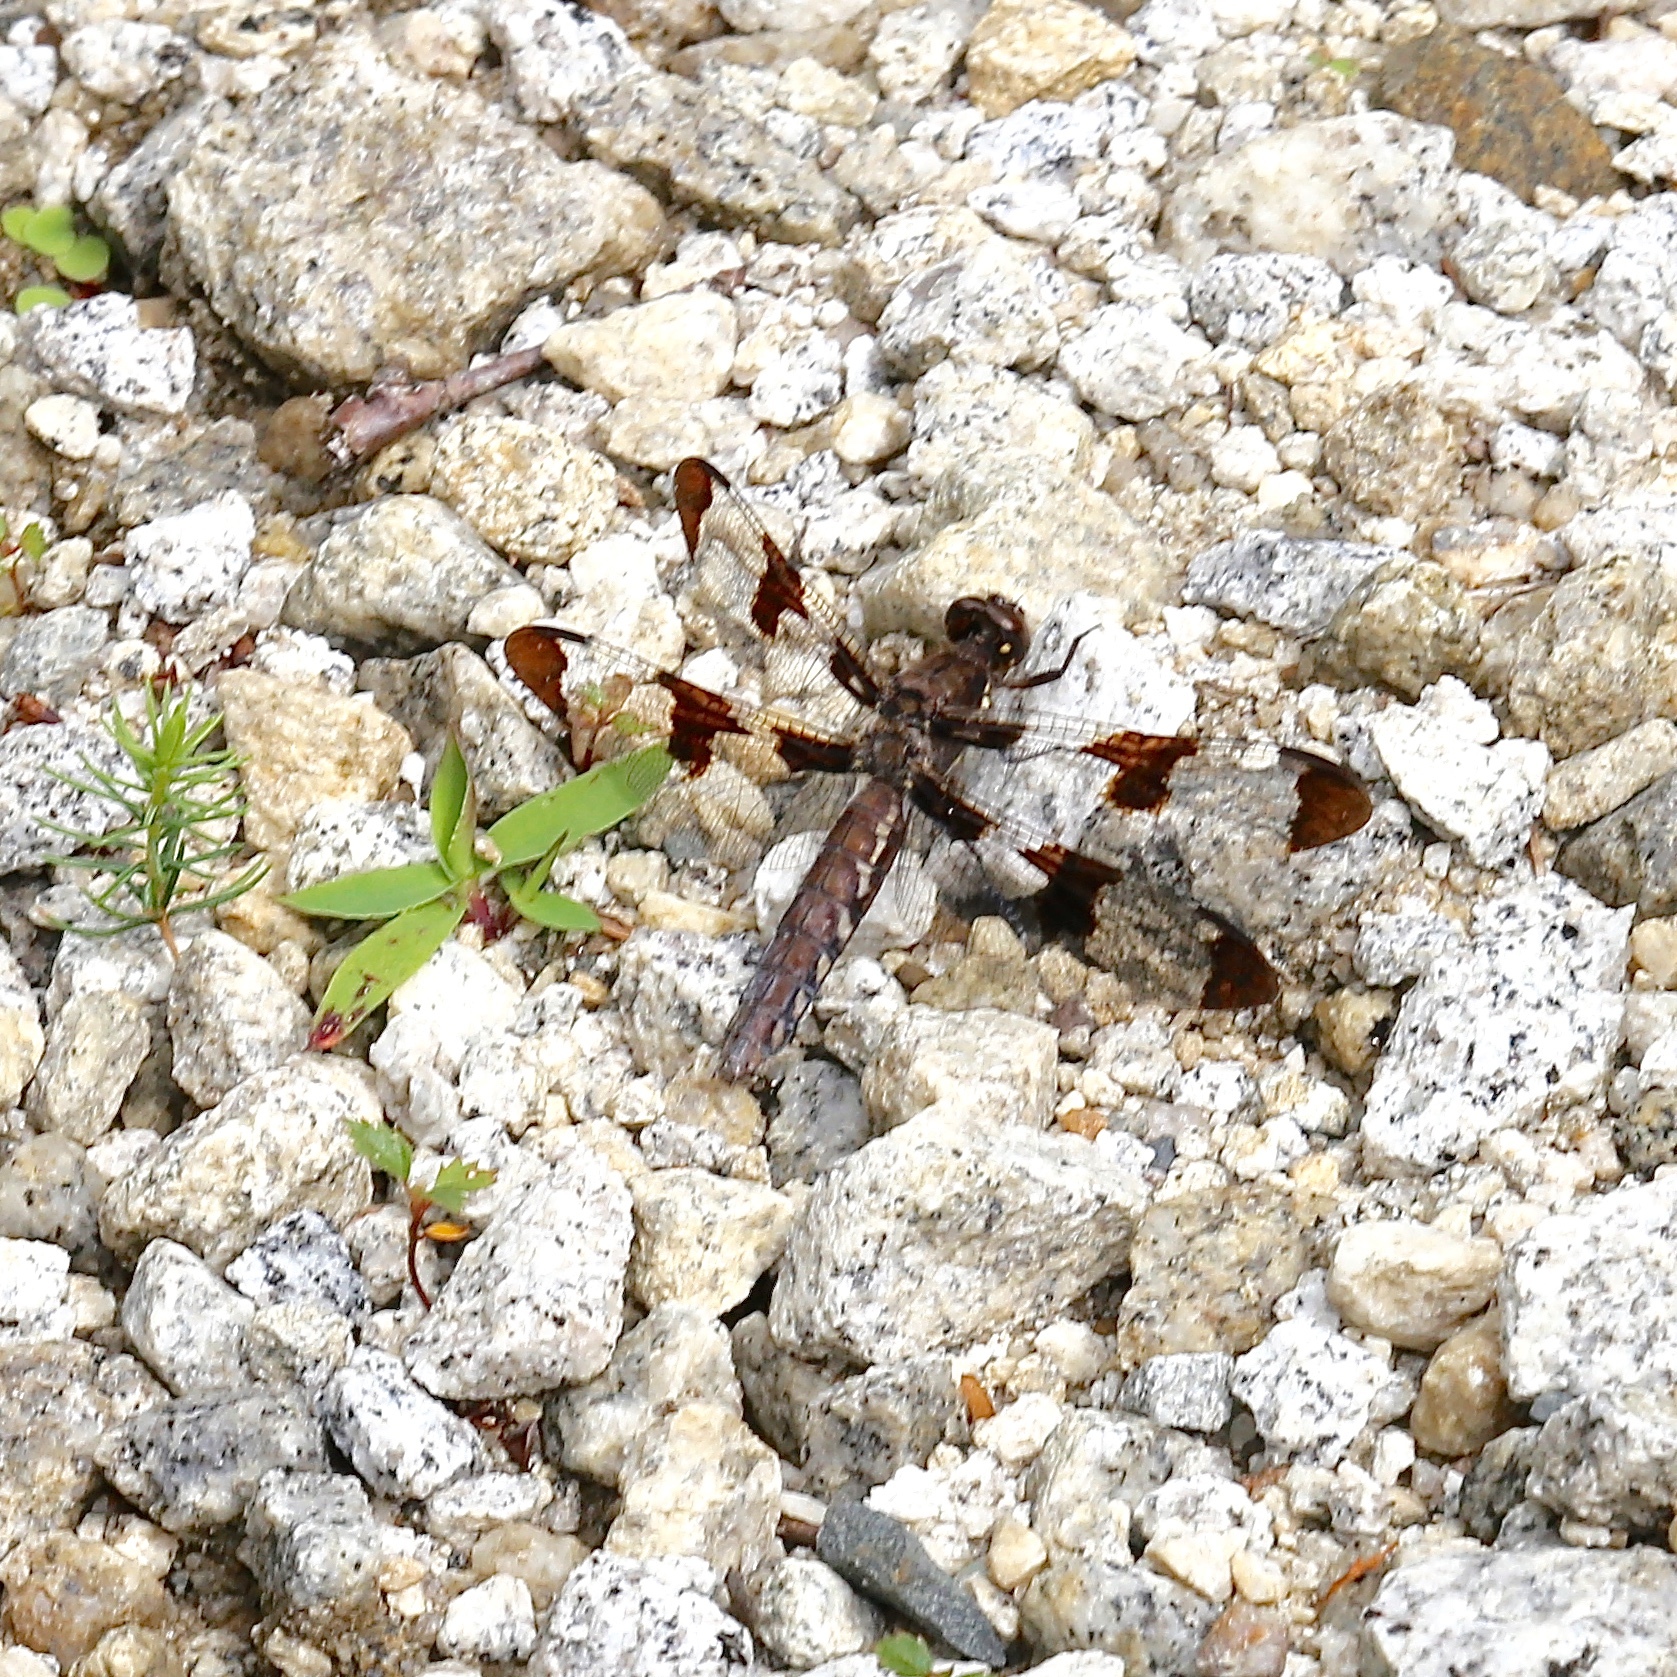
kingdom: Animalia
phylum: Arthropoda
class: Insecta
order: Odonata
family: Libellulidae
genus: Plathemis
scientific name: Plathemis lydia
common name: Common whitetail
